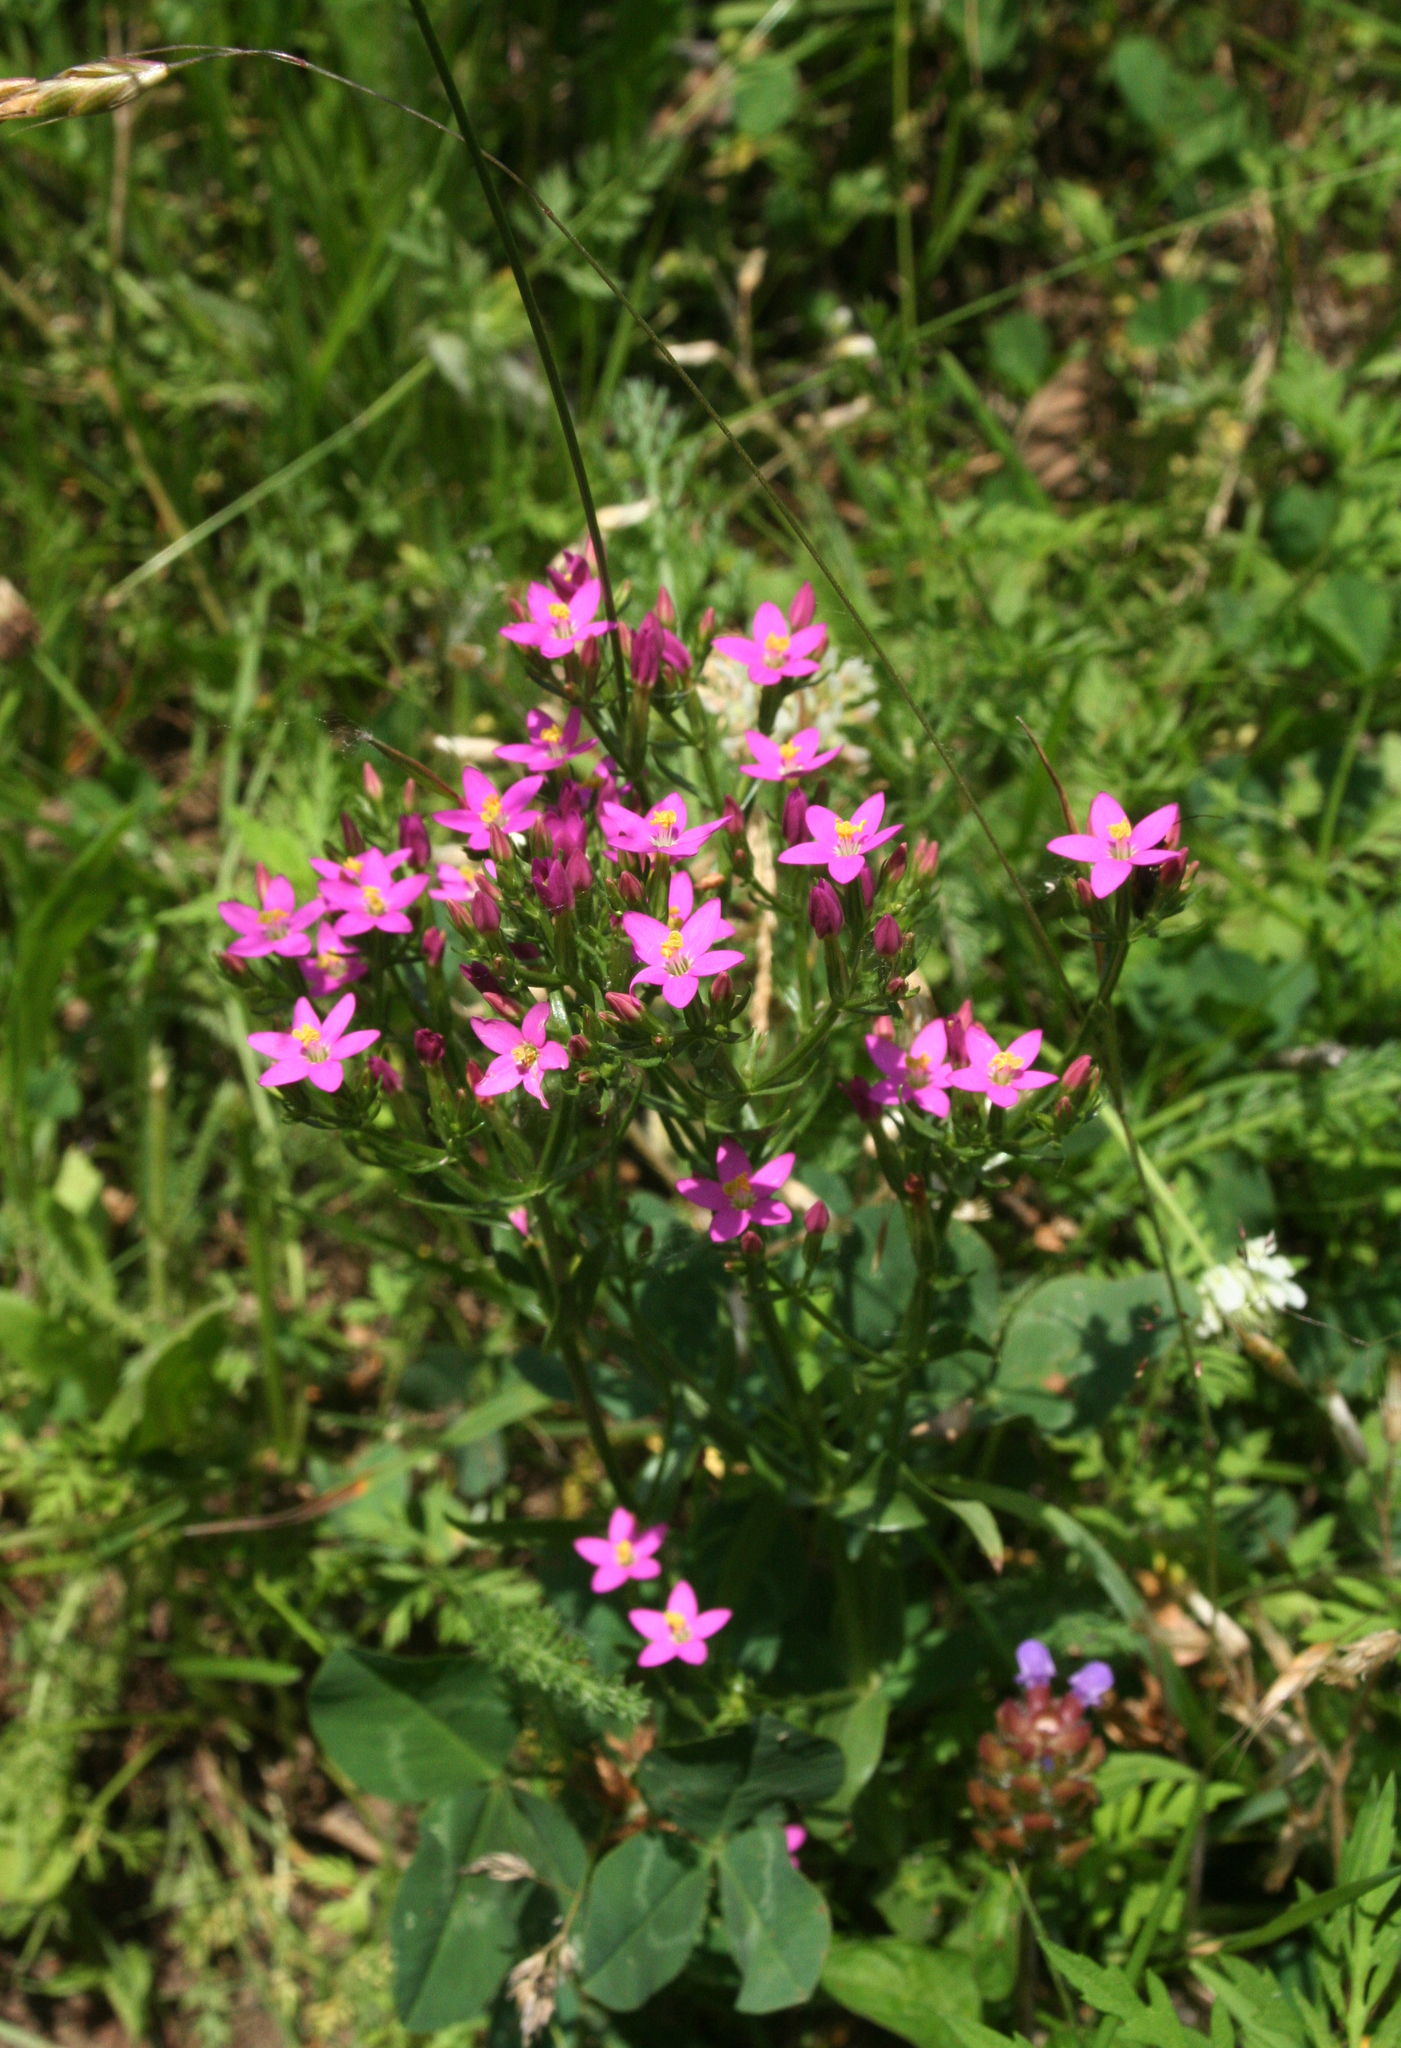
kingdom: Plantae
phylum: Tracheophyta
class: Magnoliopsida
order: Gentianales
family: Gentianaceae
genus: Centaurium
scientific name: Centaurium erythraea
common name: Common centaury
